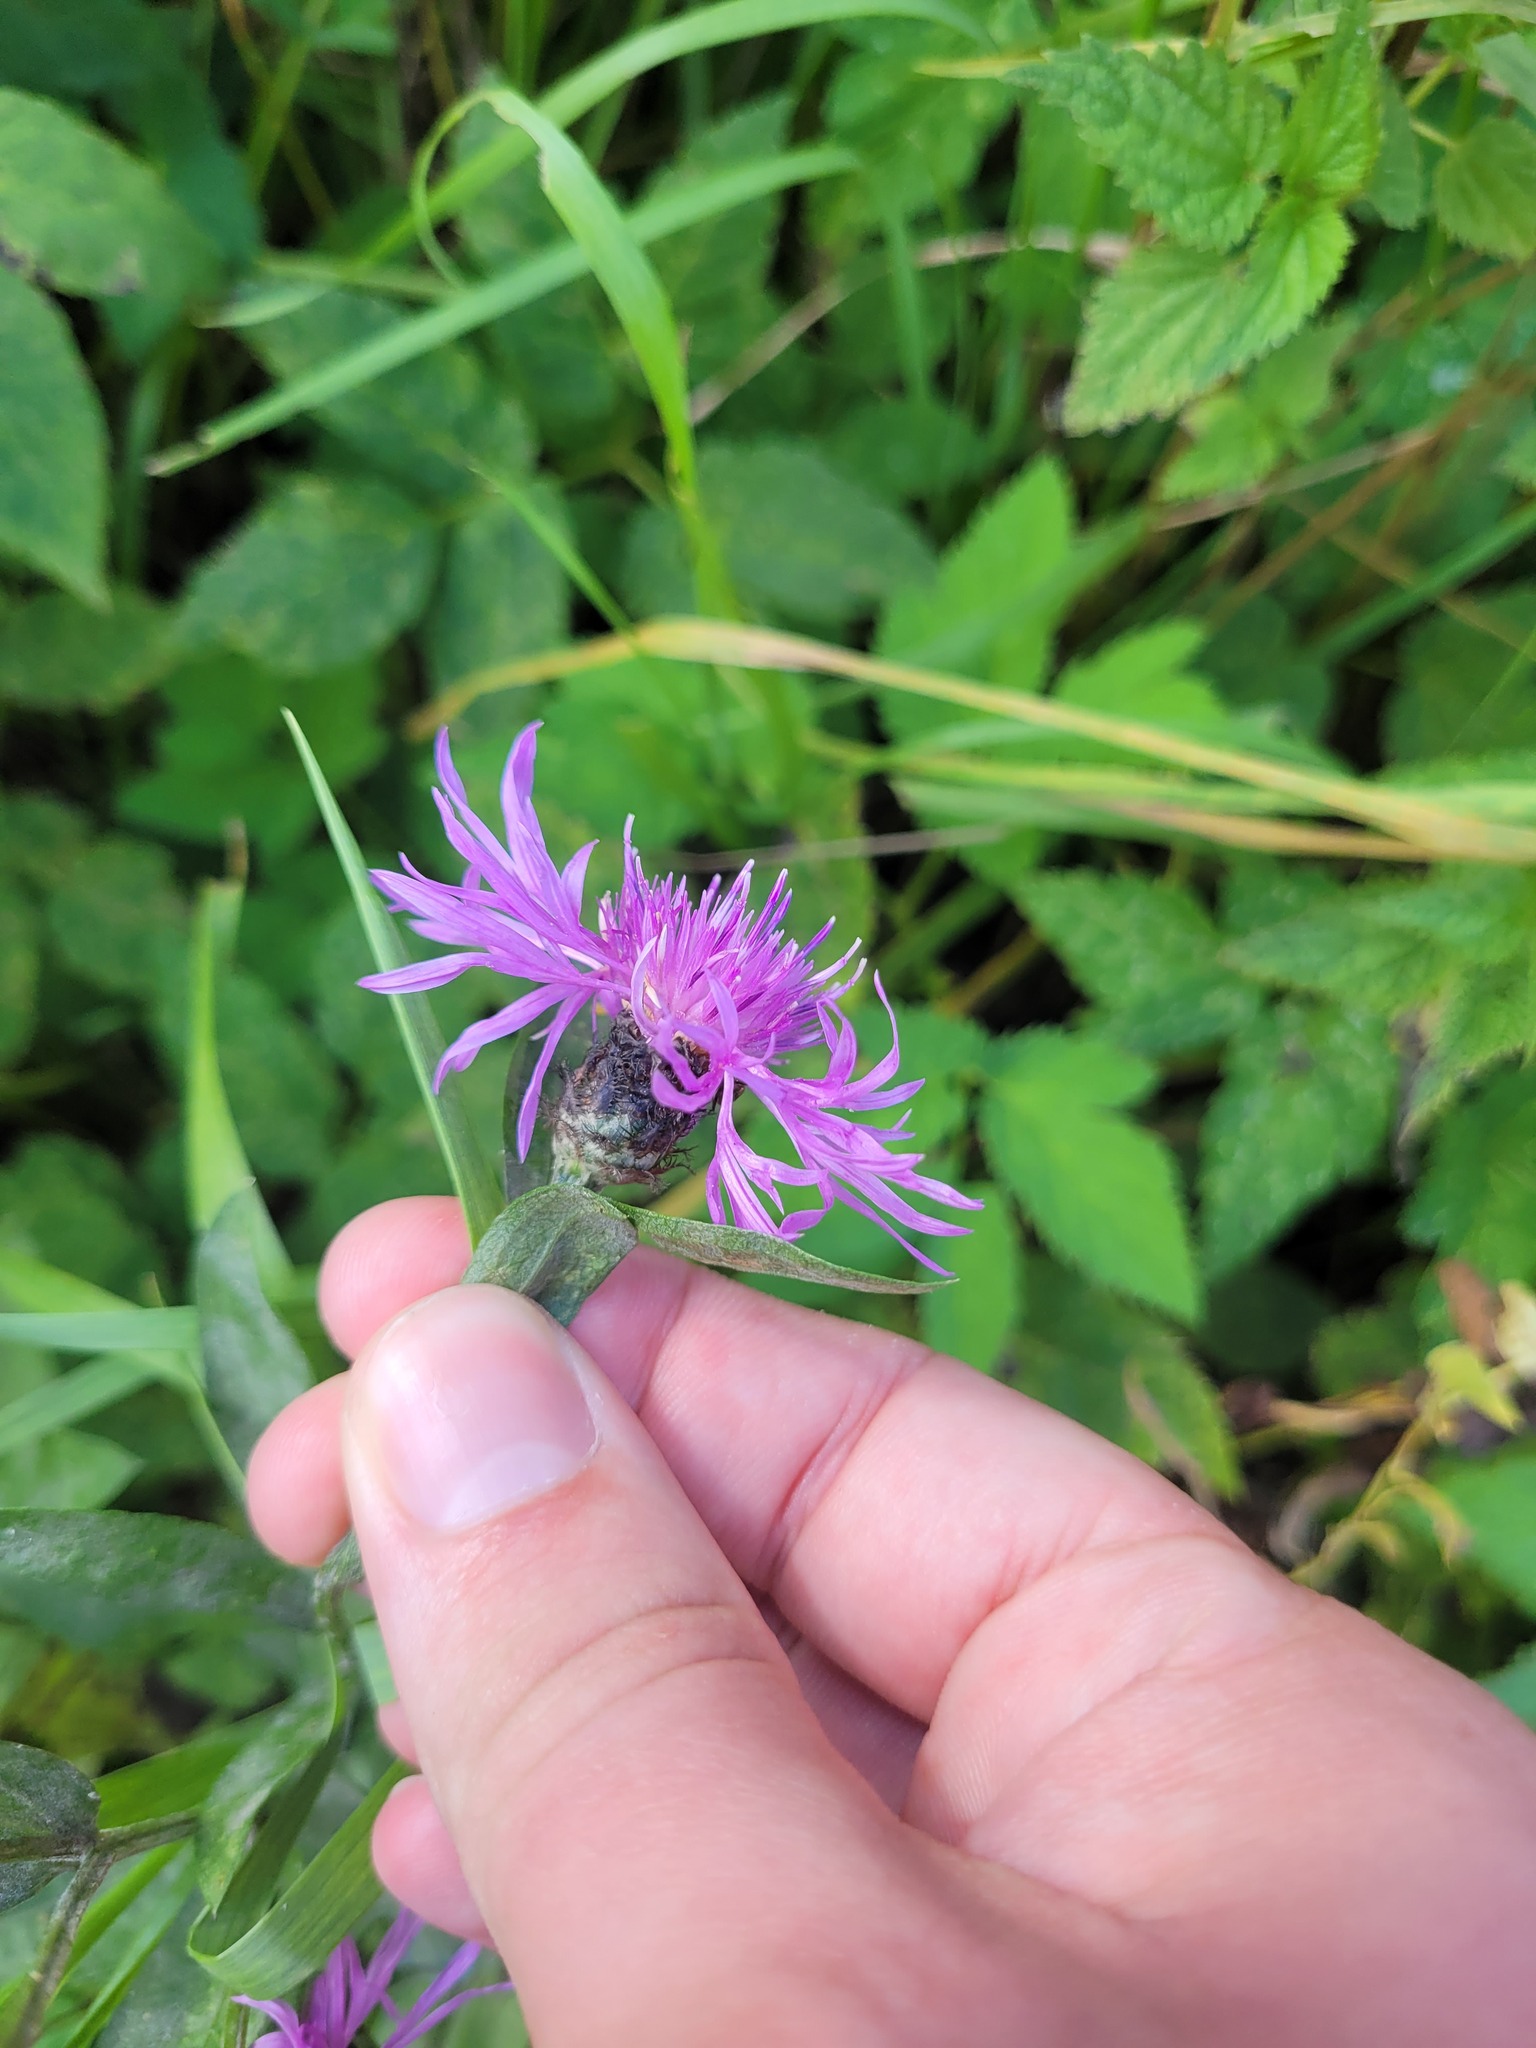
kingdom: Plantae
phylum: Tracheophyta
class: Magnoliopsida
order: Asterales
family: Asteraceae
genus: Centaurea
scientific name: Centaurea phrygia
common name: Wig knapweed
